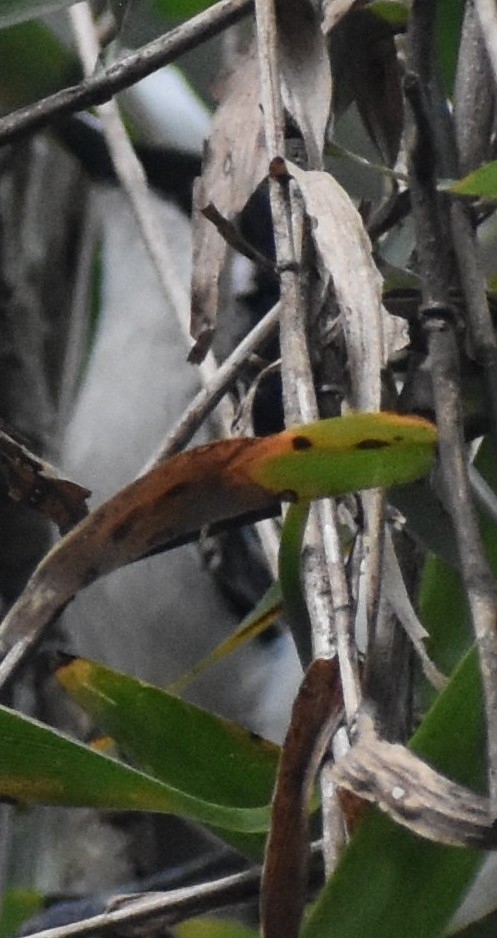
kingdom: Animalia
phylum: Chordata
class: Aves
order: Passeriformes
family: Malaconotidae
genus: Dryoscopus
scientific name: Dryoscopus cubla
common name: Black-backed puffback
